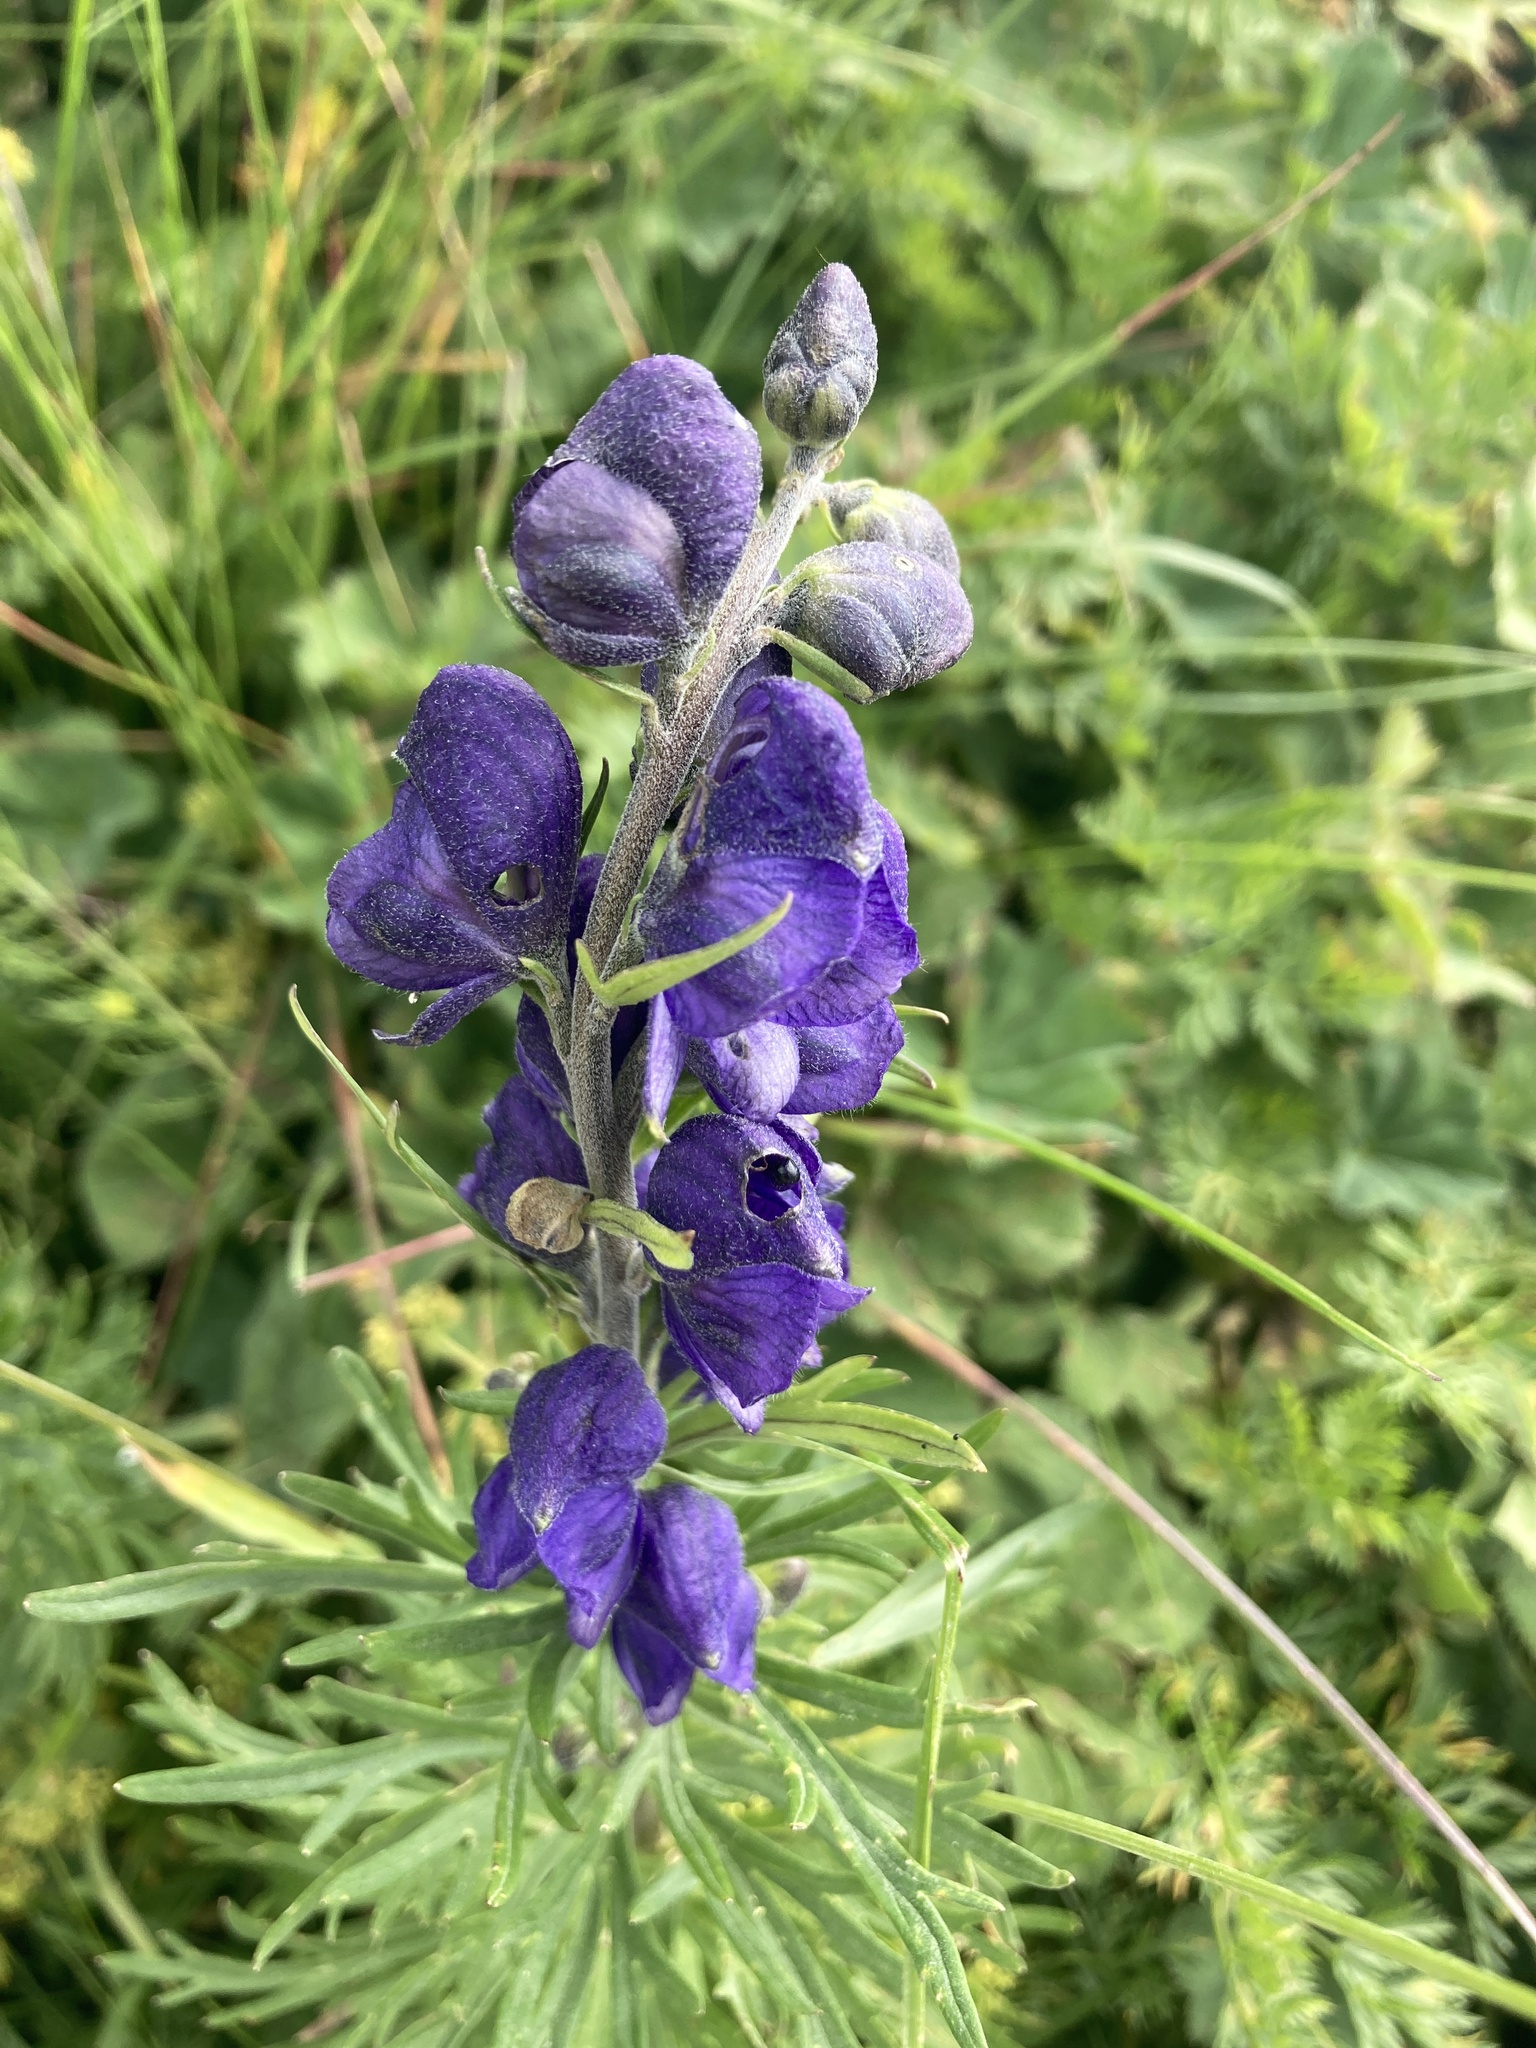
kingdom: Plantae
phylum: Tracheophyta
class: Magnoliopsida
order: Ranunculales
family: Ranunculaceae
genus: Aconitum
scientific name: Aconitum napellus
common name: Garden monkshood
